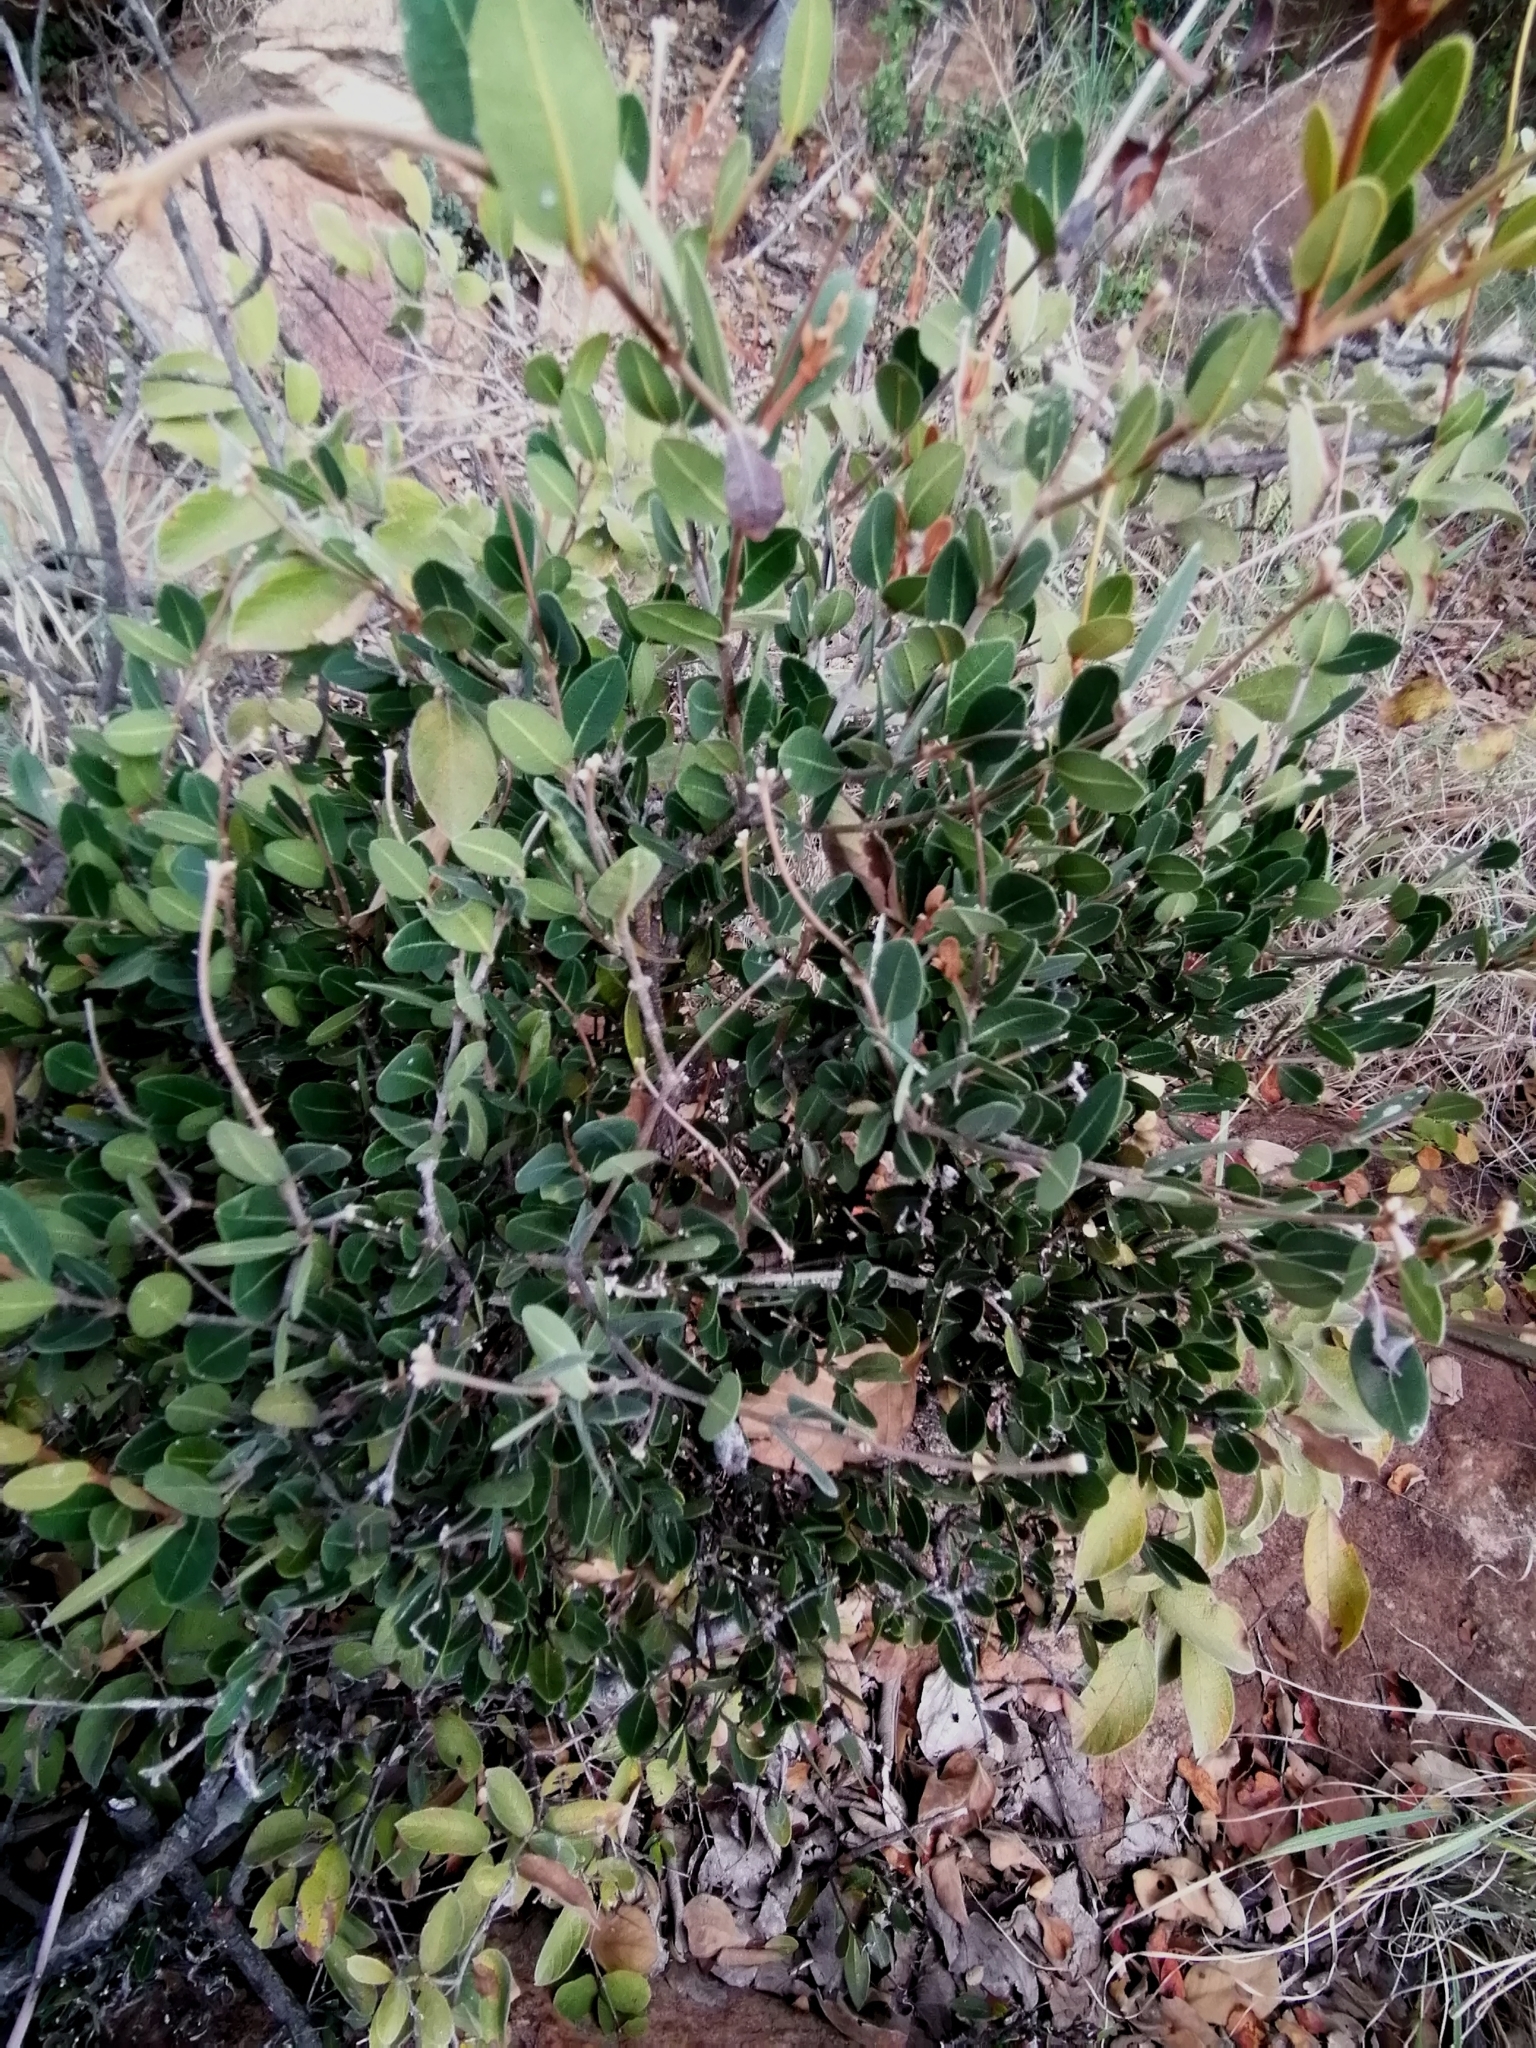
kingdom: Plantae
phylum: Tracheophyta
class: Magnoliopsida
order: Gentianales
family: Apocynaceae
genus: Ancylobothrys
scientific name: Ancylobothrys capensis
